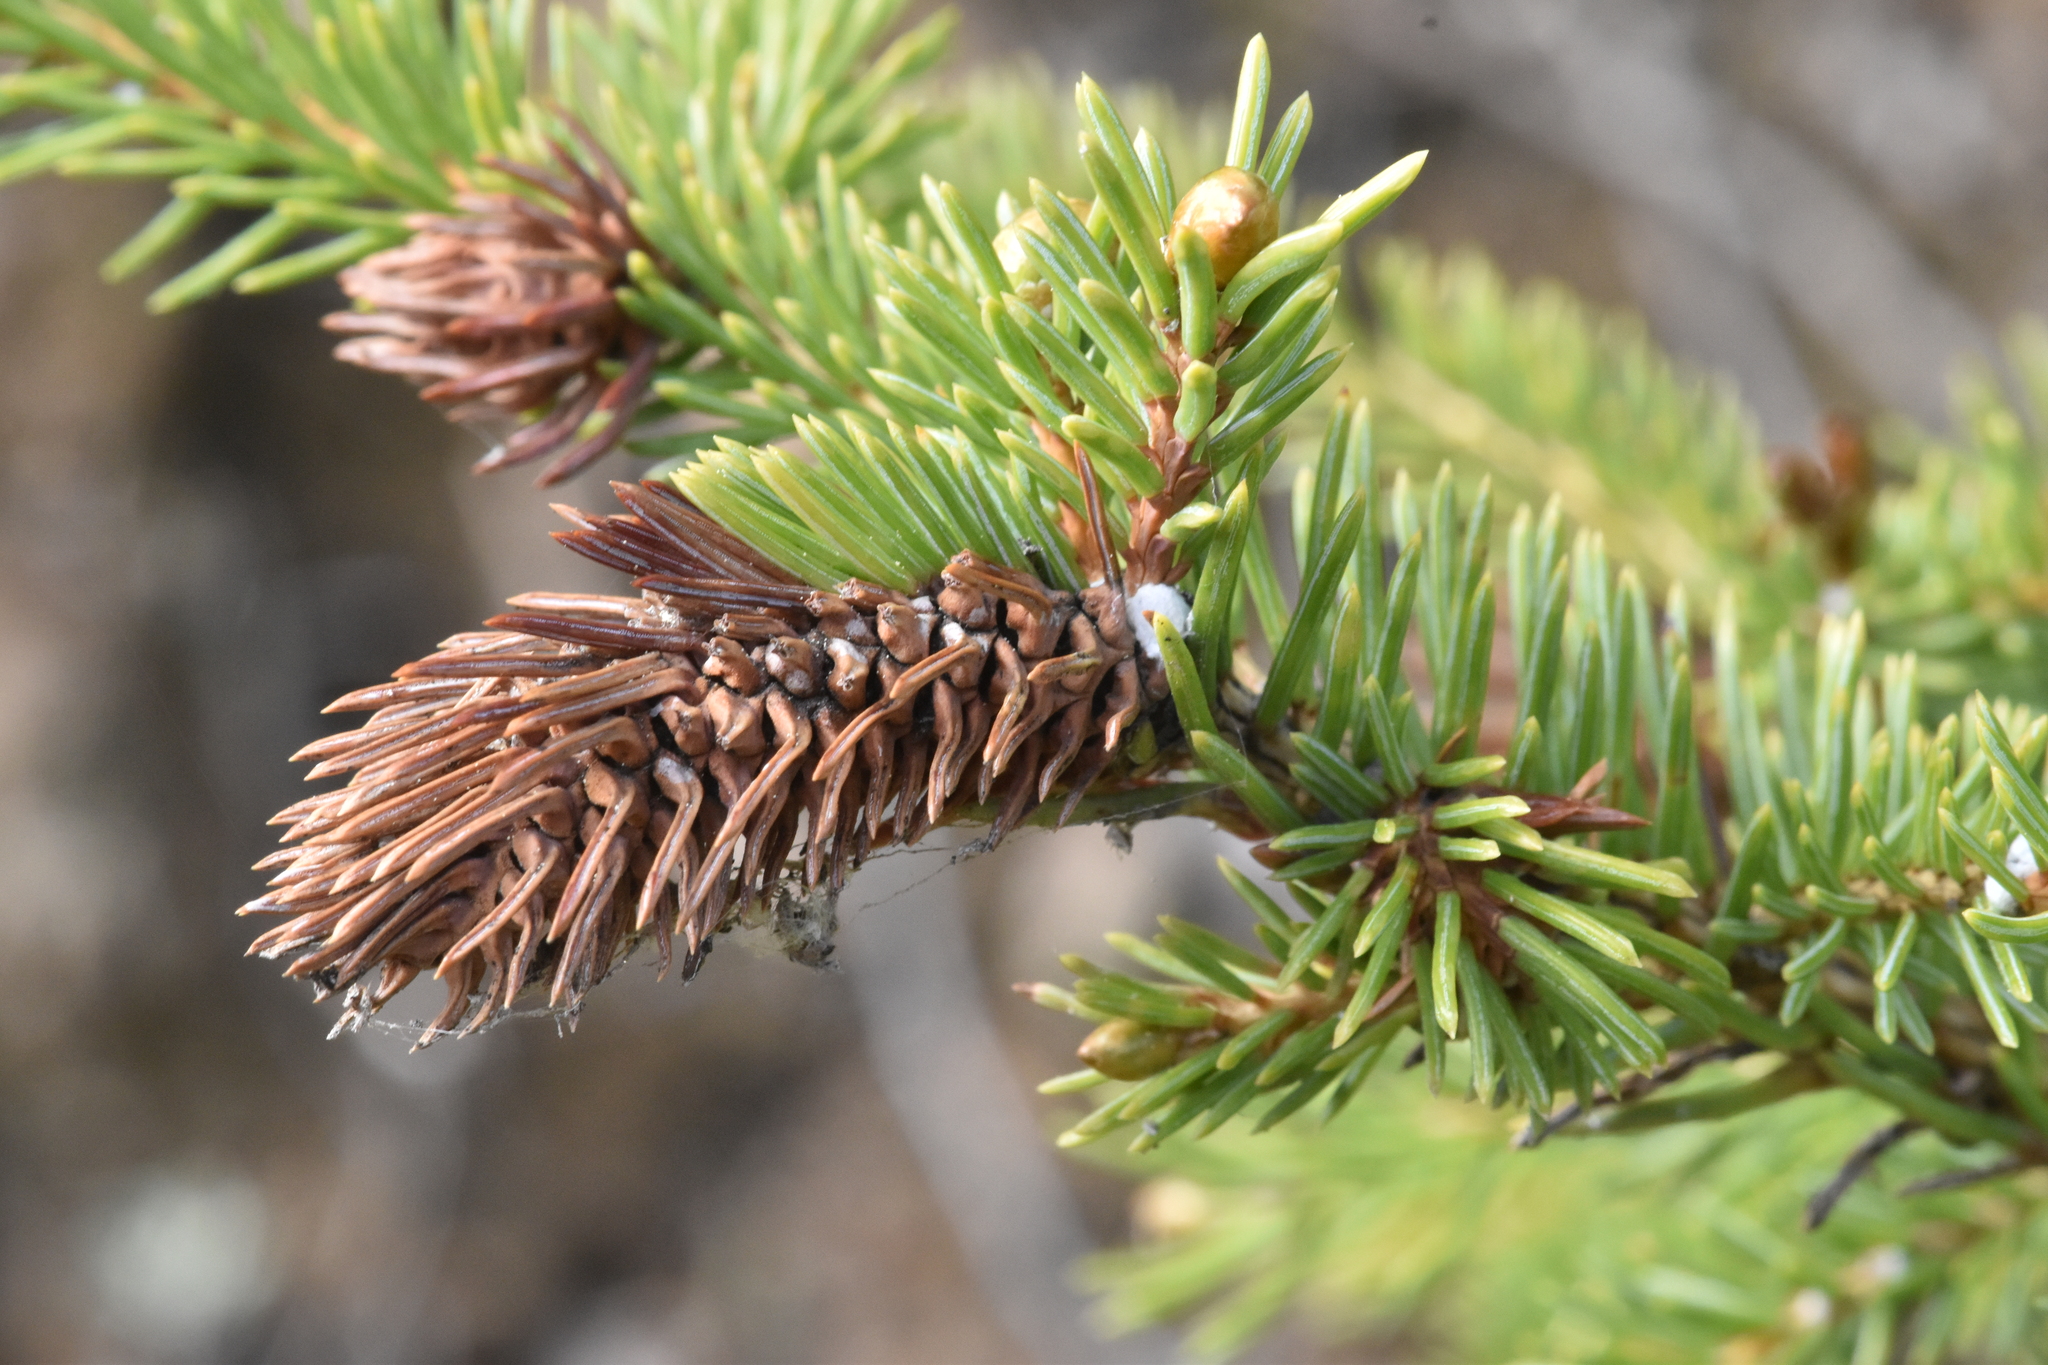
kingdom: Animalia
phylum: Arthropoda
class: Insecta
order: Hemiptera
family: Adelgidae
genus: Adelges
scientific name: Adelges cooleyi
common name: Cooley spruce gall adelgid
